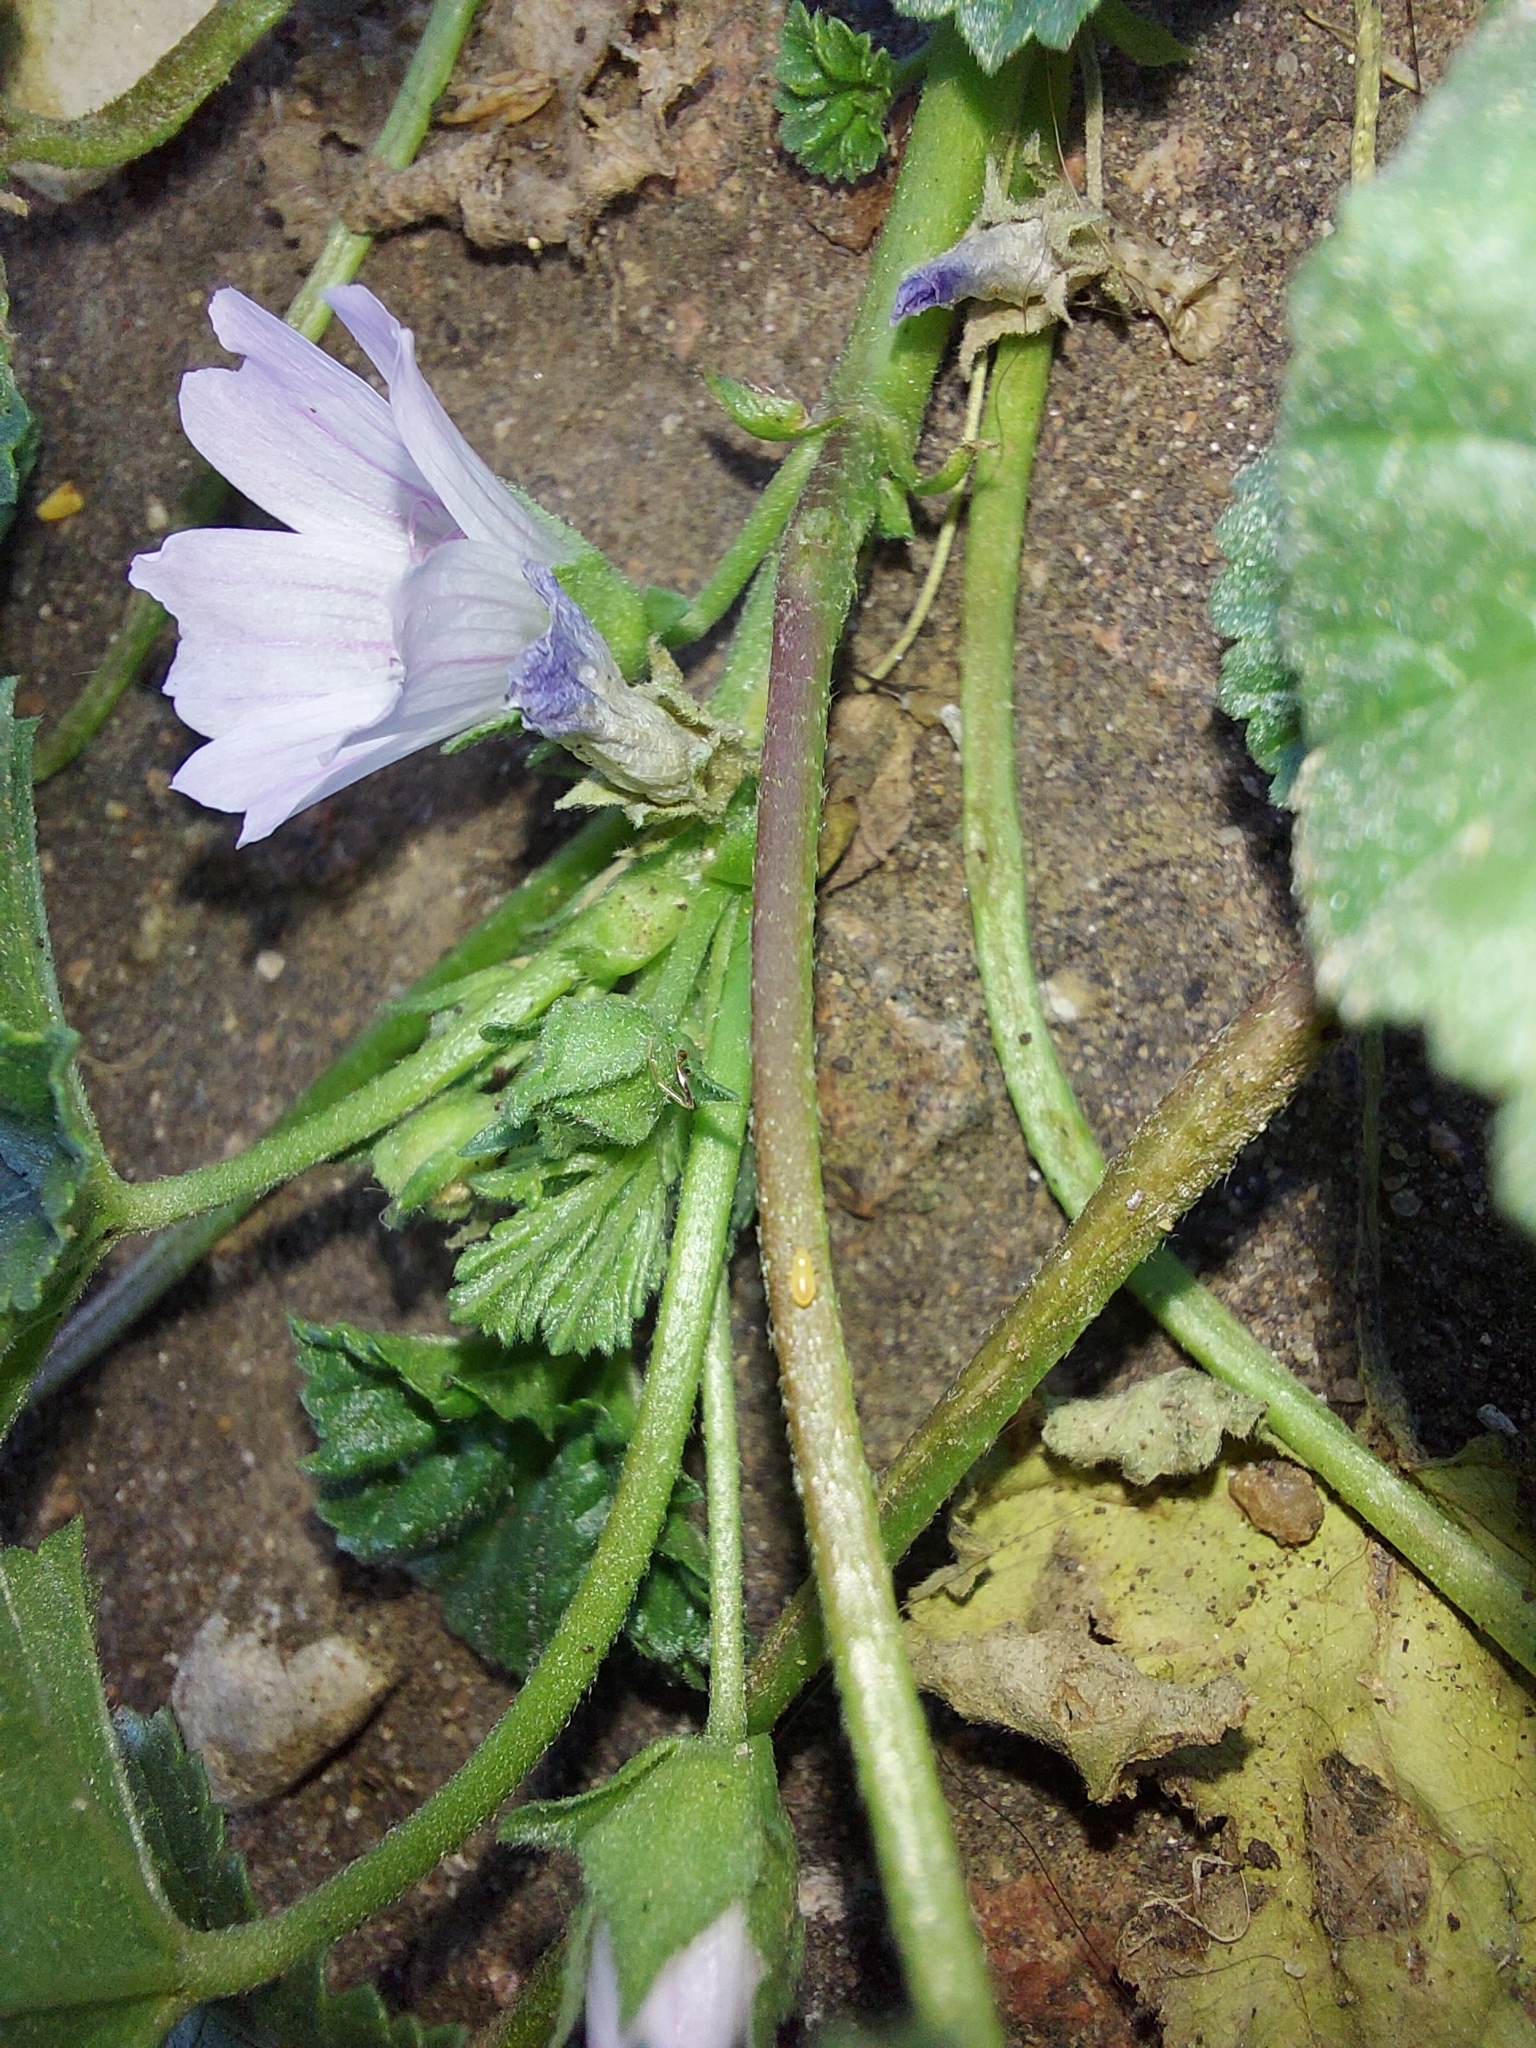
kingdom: Plantae
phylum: Tracheophyta
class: Magnoliopsida
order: Malvales
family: Malvaceae
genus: Malva
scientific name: Malva neglecta
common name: Common mallow
